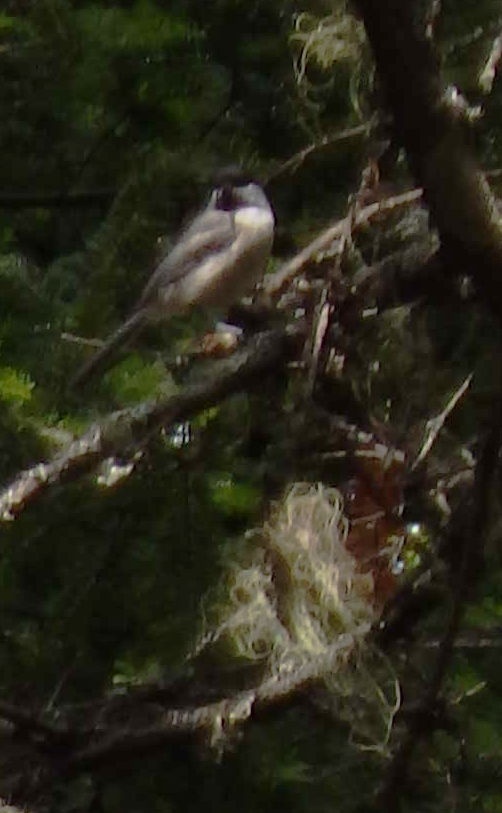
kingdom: Animalia
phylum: Chordata
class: Aves
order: Passeriformes
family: Paridae
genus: Poecile
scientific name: Poecile atricapillus
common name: Black-capped chickadee
